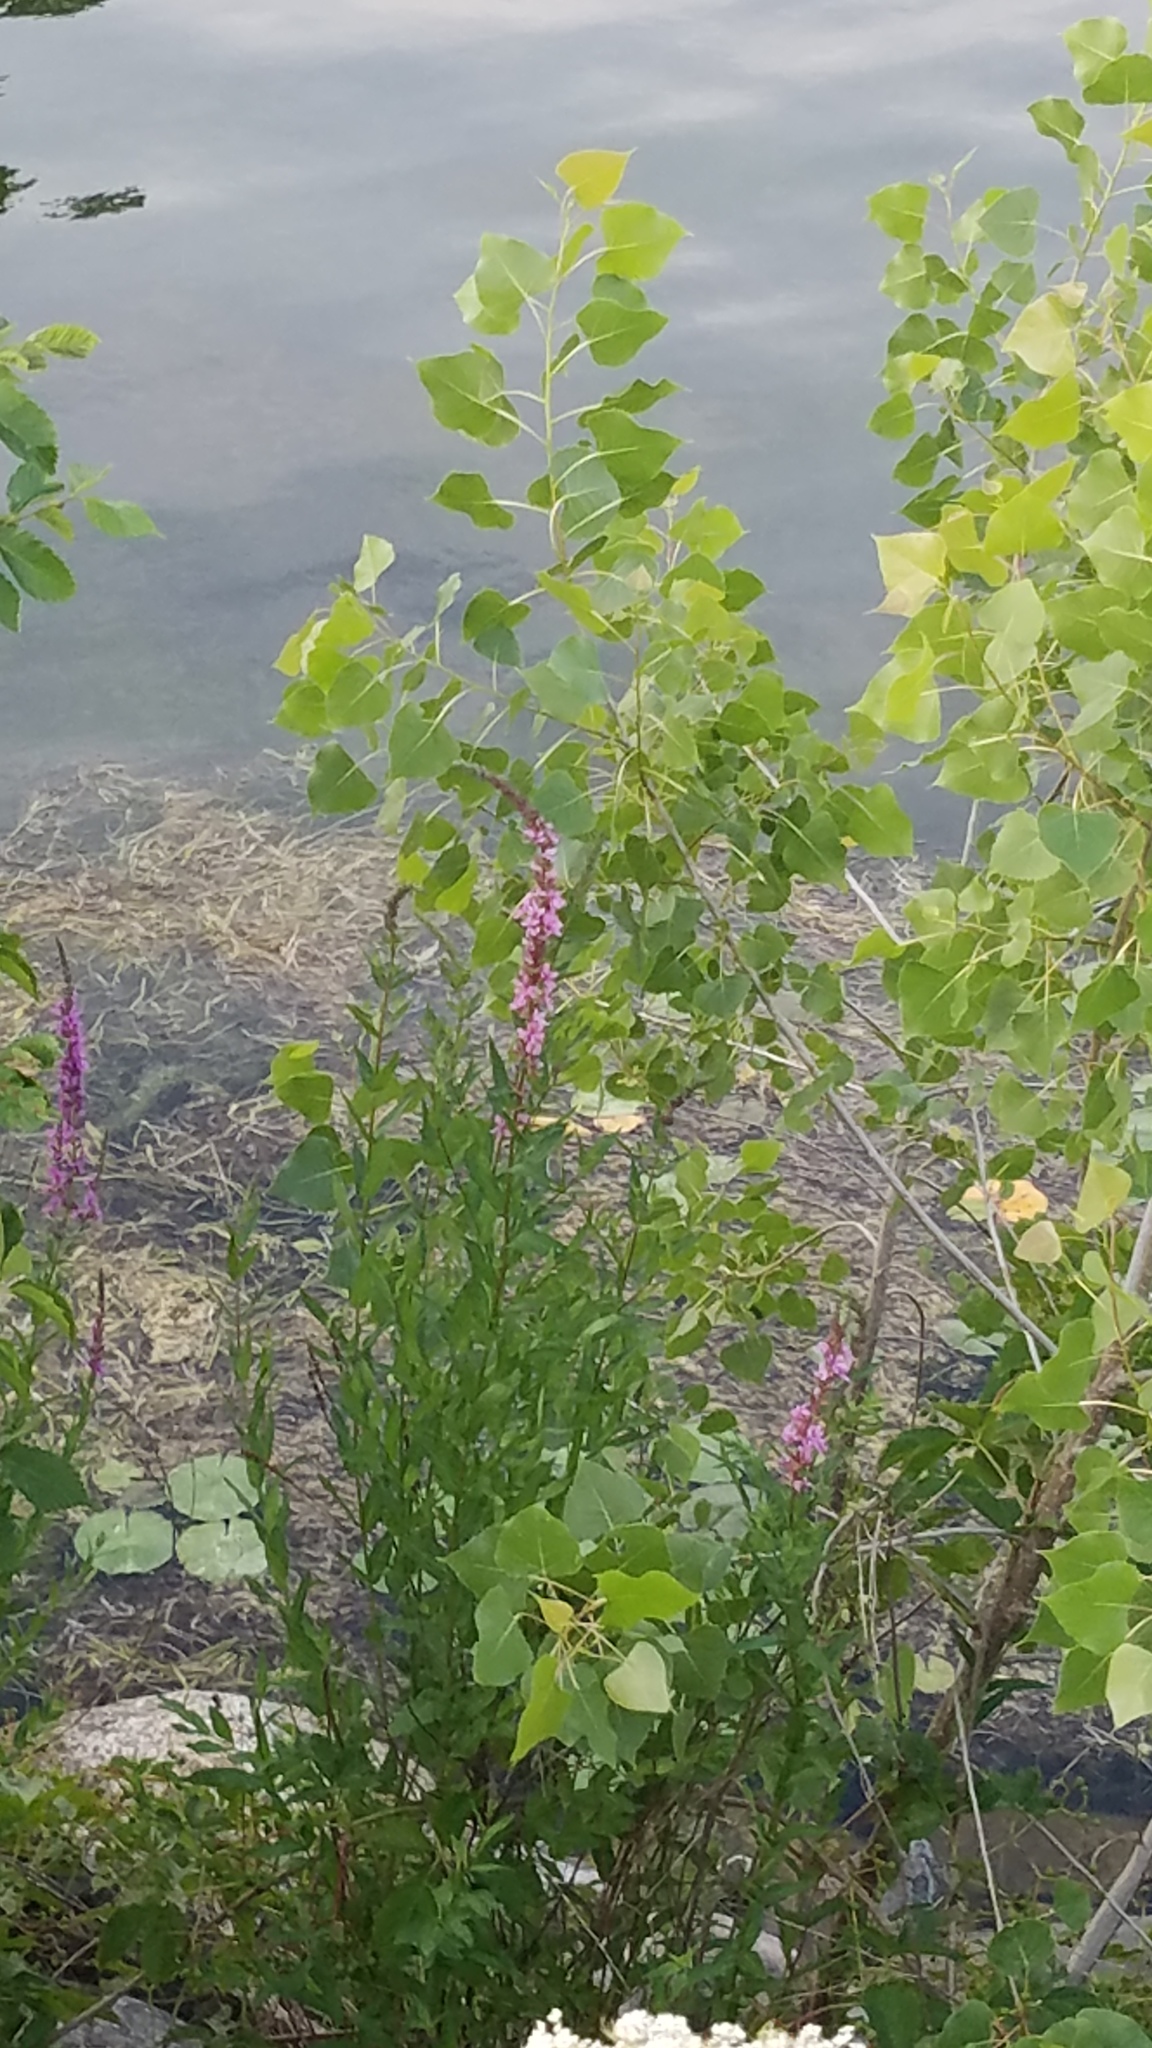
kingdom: Plantae
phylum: Tracheophyta
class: Magnoliopsida
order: Myrtales
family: Lythraceae
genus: Lythrum
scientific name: Lythrum salicaria
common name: Purple loosestrife
